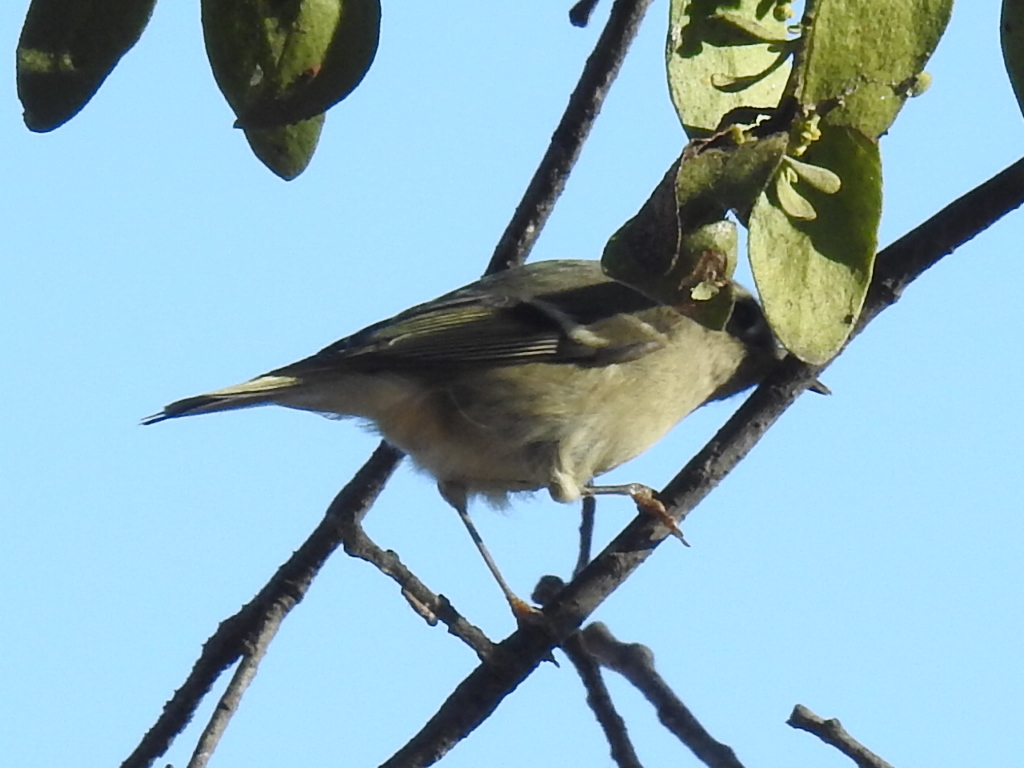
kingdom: Animalia
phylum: Chordata
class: Aves
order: Passeriformes
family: Regulidae
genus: Regulus
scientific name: Regulus calendula
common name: Ruby-crowned kinglet
